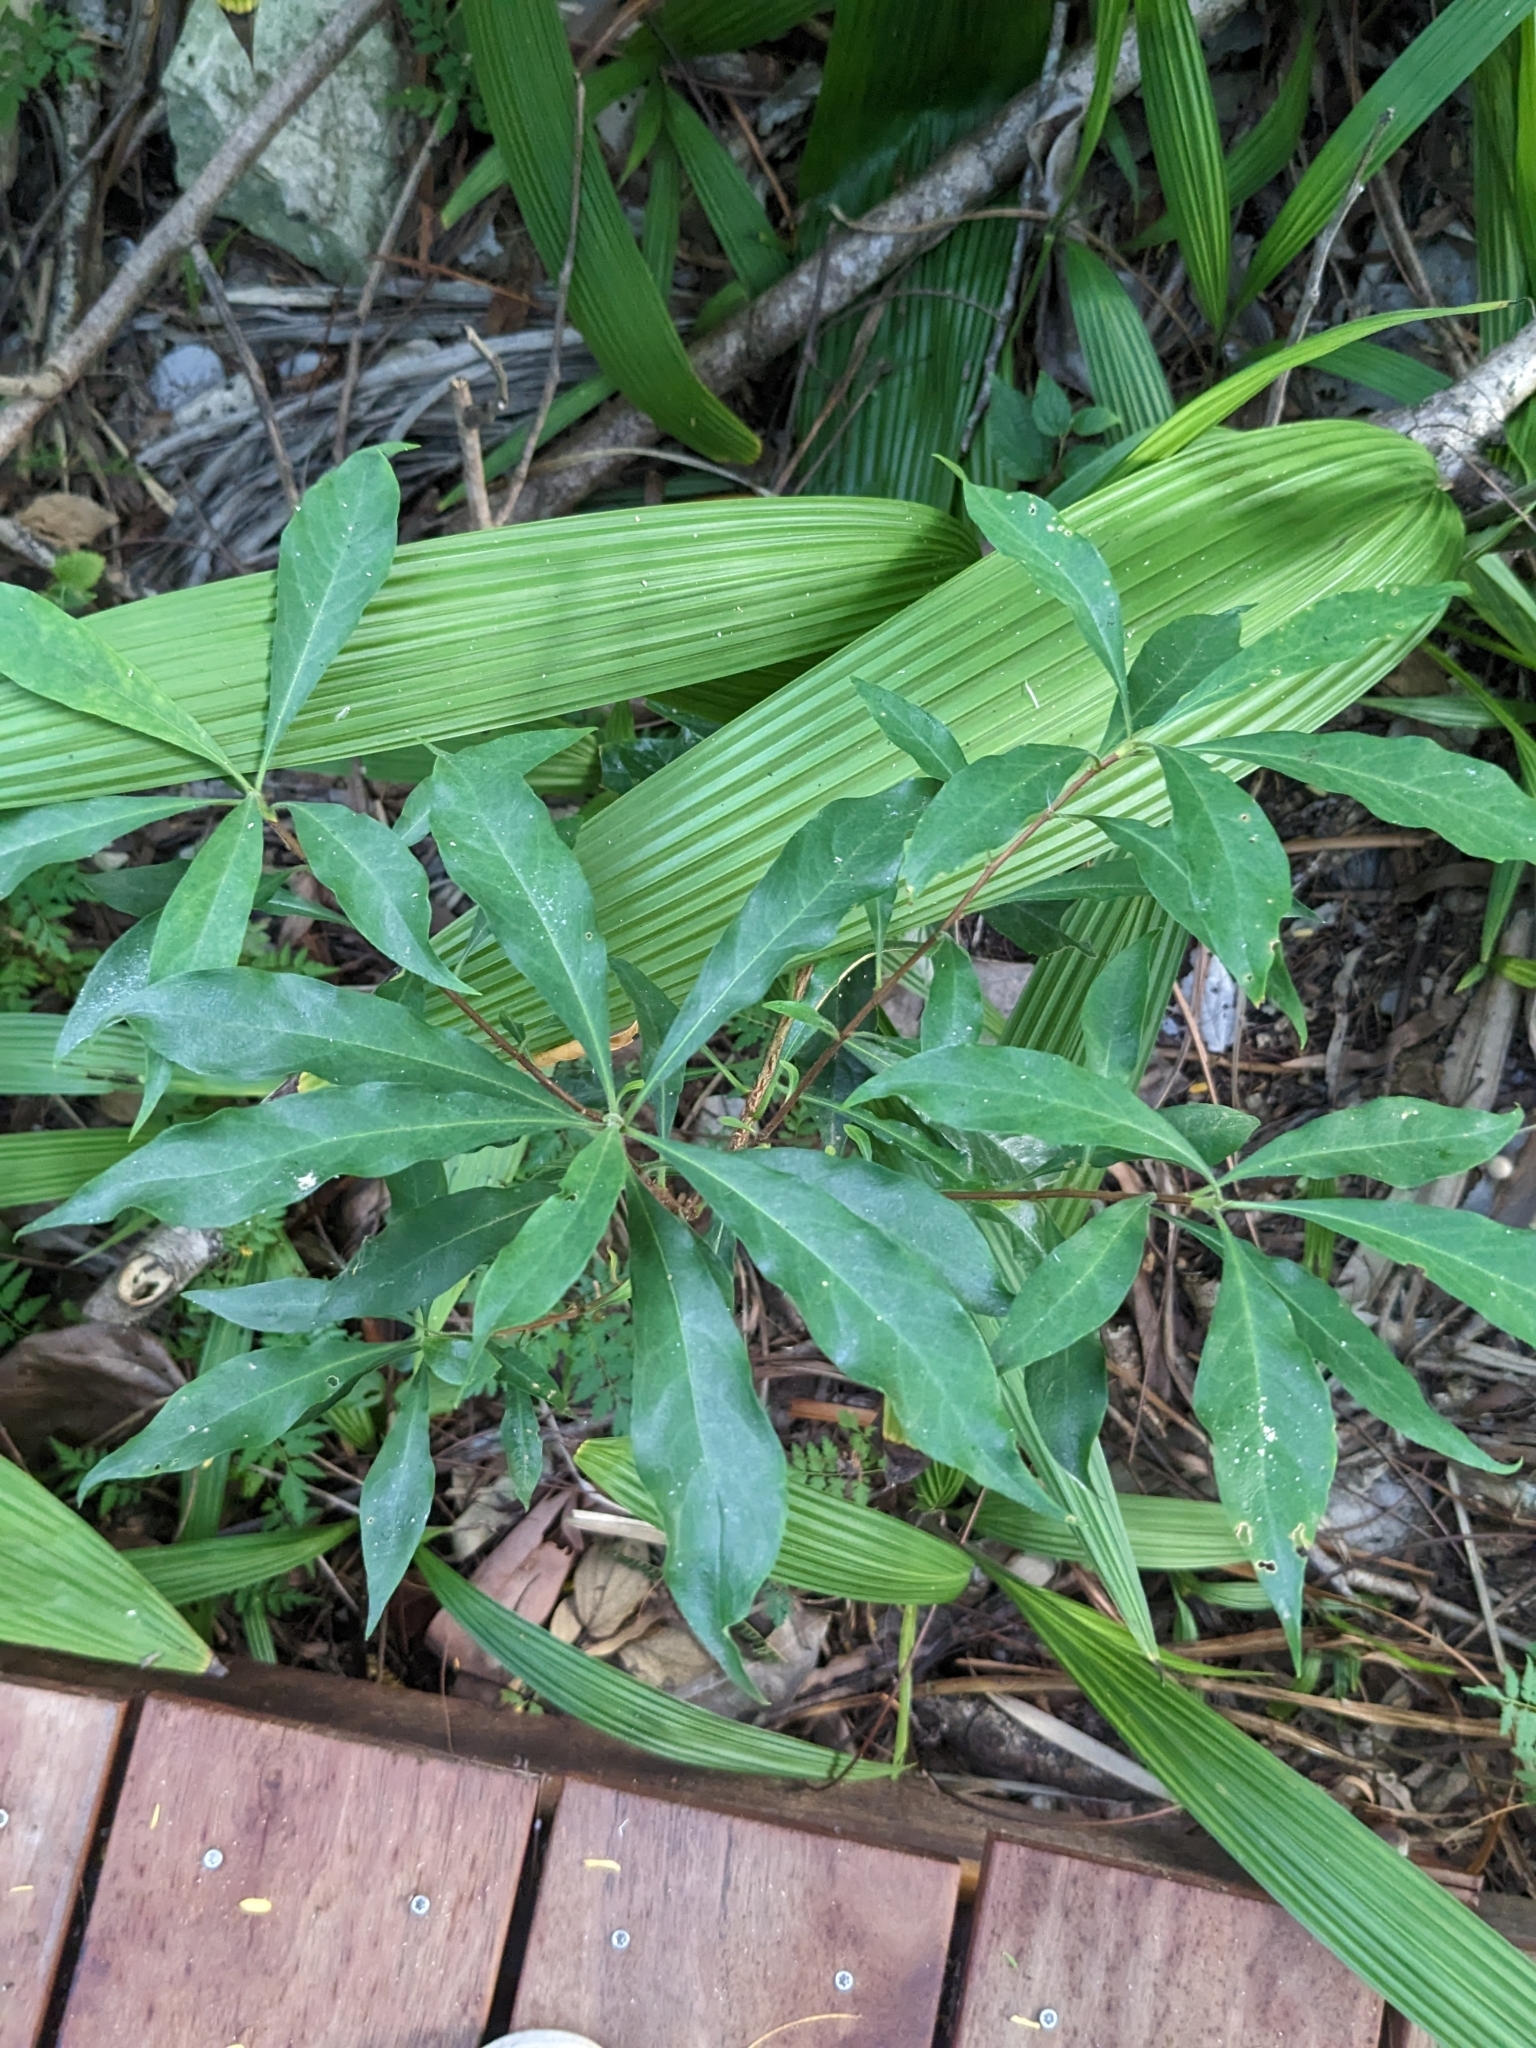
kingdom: Plantae
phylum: Tracheophyta
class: Magnoliopsida
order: Apiales
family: Pittosporaceae
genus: Hymenosporum
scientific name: Hymenosporum flavum
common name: Native frangipani
